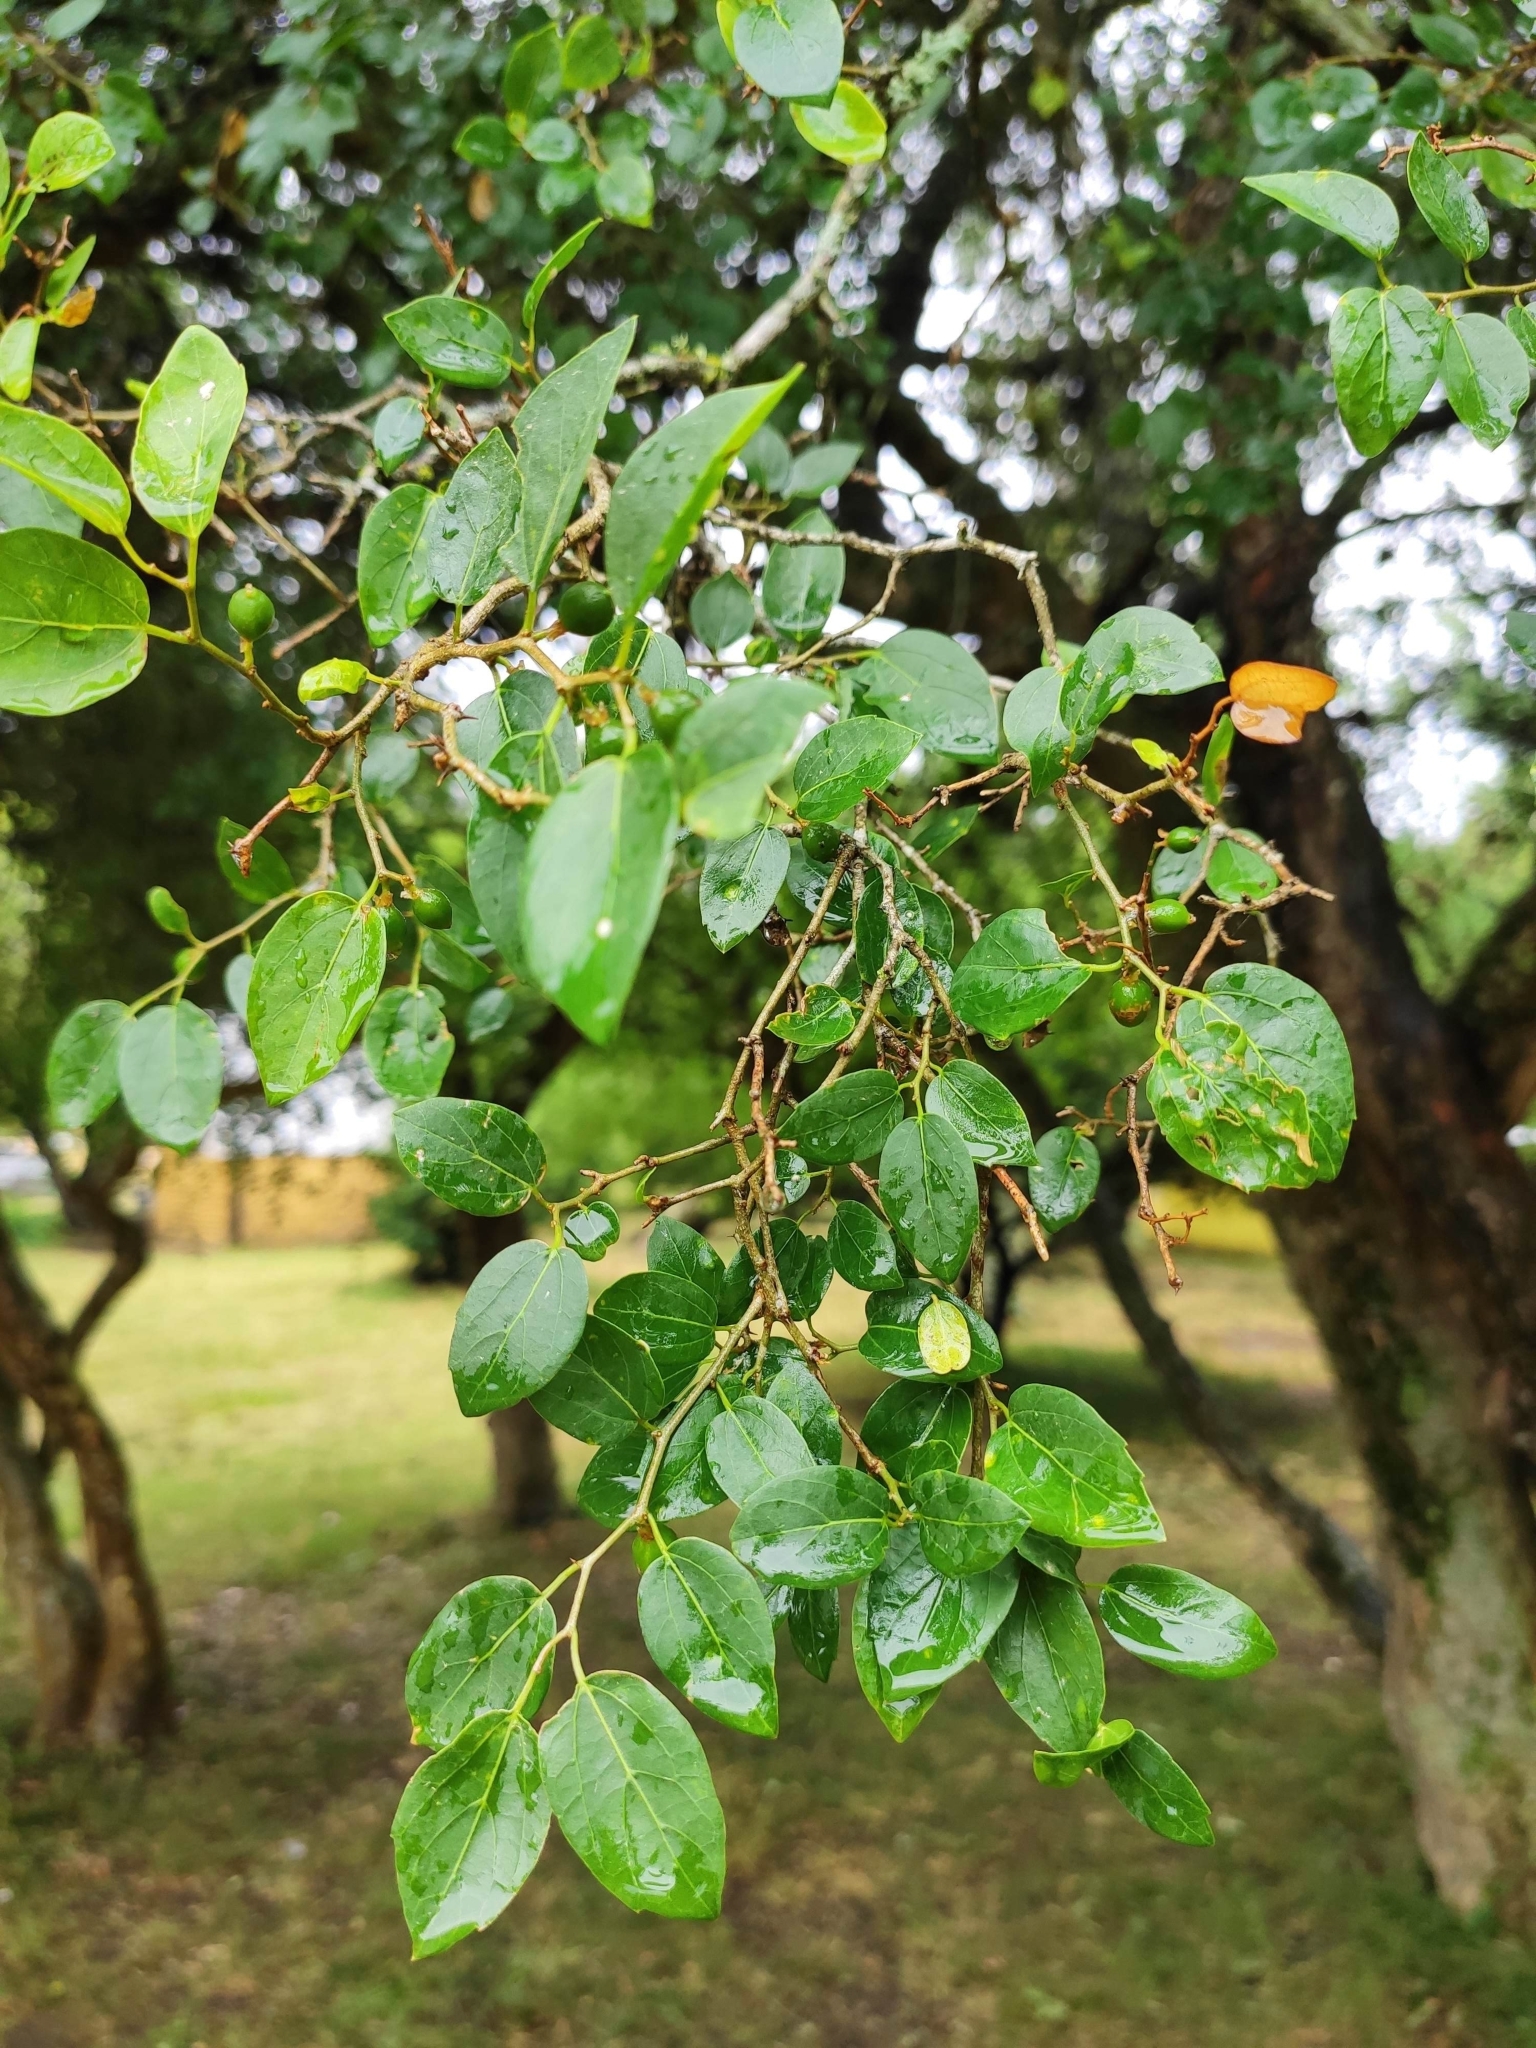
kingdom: Plantae
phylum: Tracheophyta
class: Magnoliopsida
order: Rosales
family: Cannabaceae
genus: Celtis
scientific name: Celtis tala
